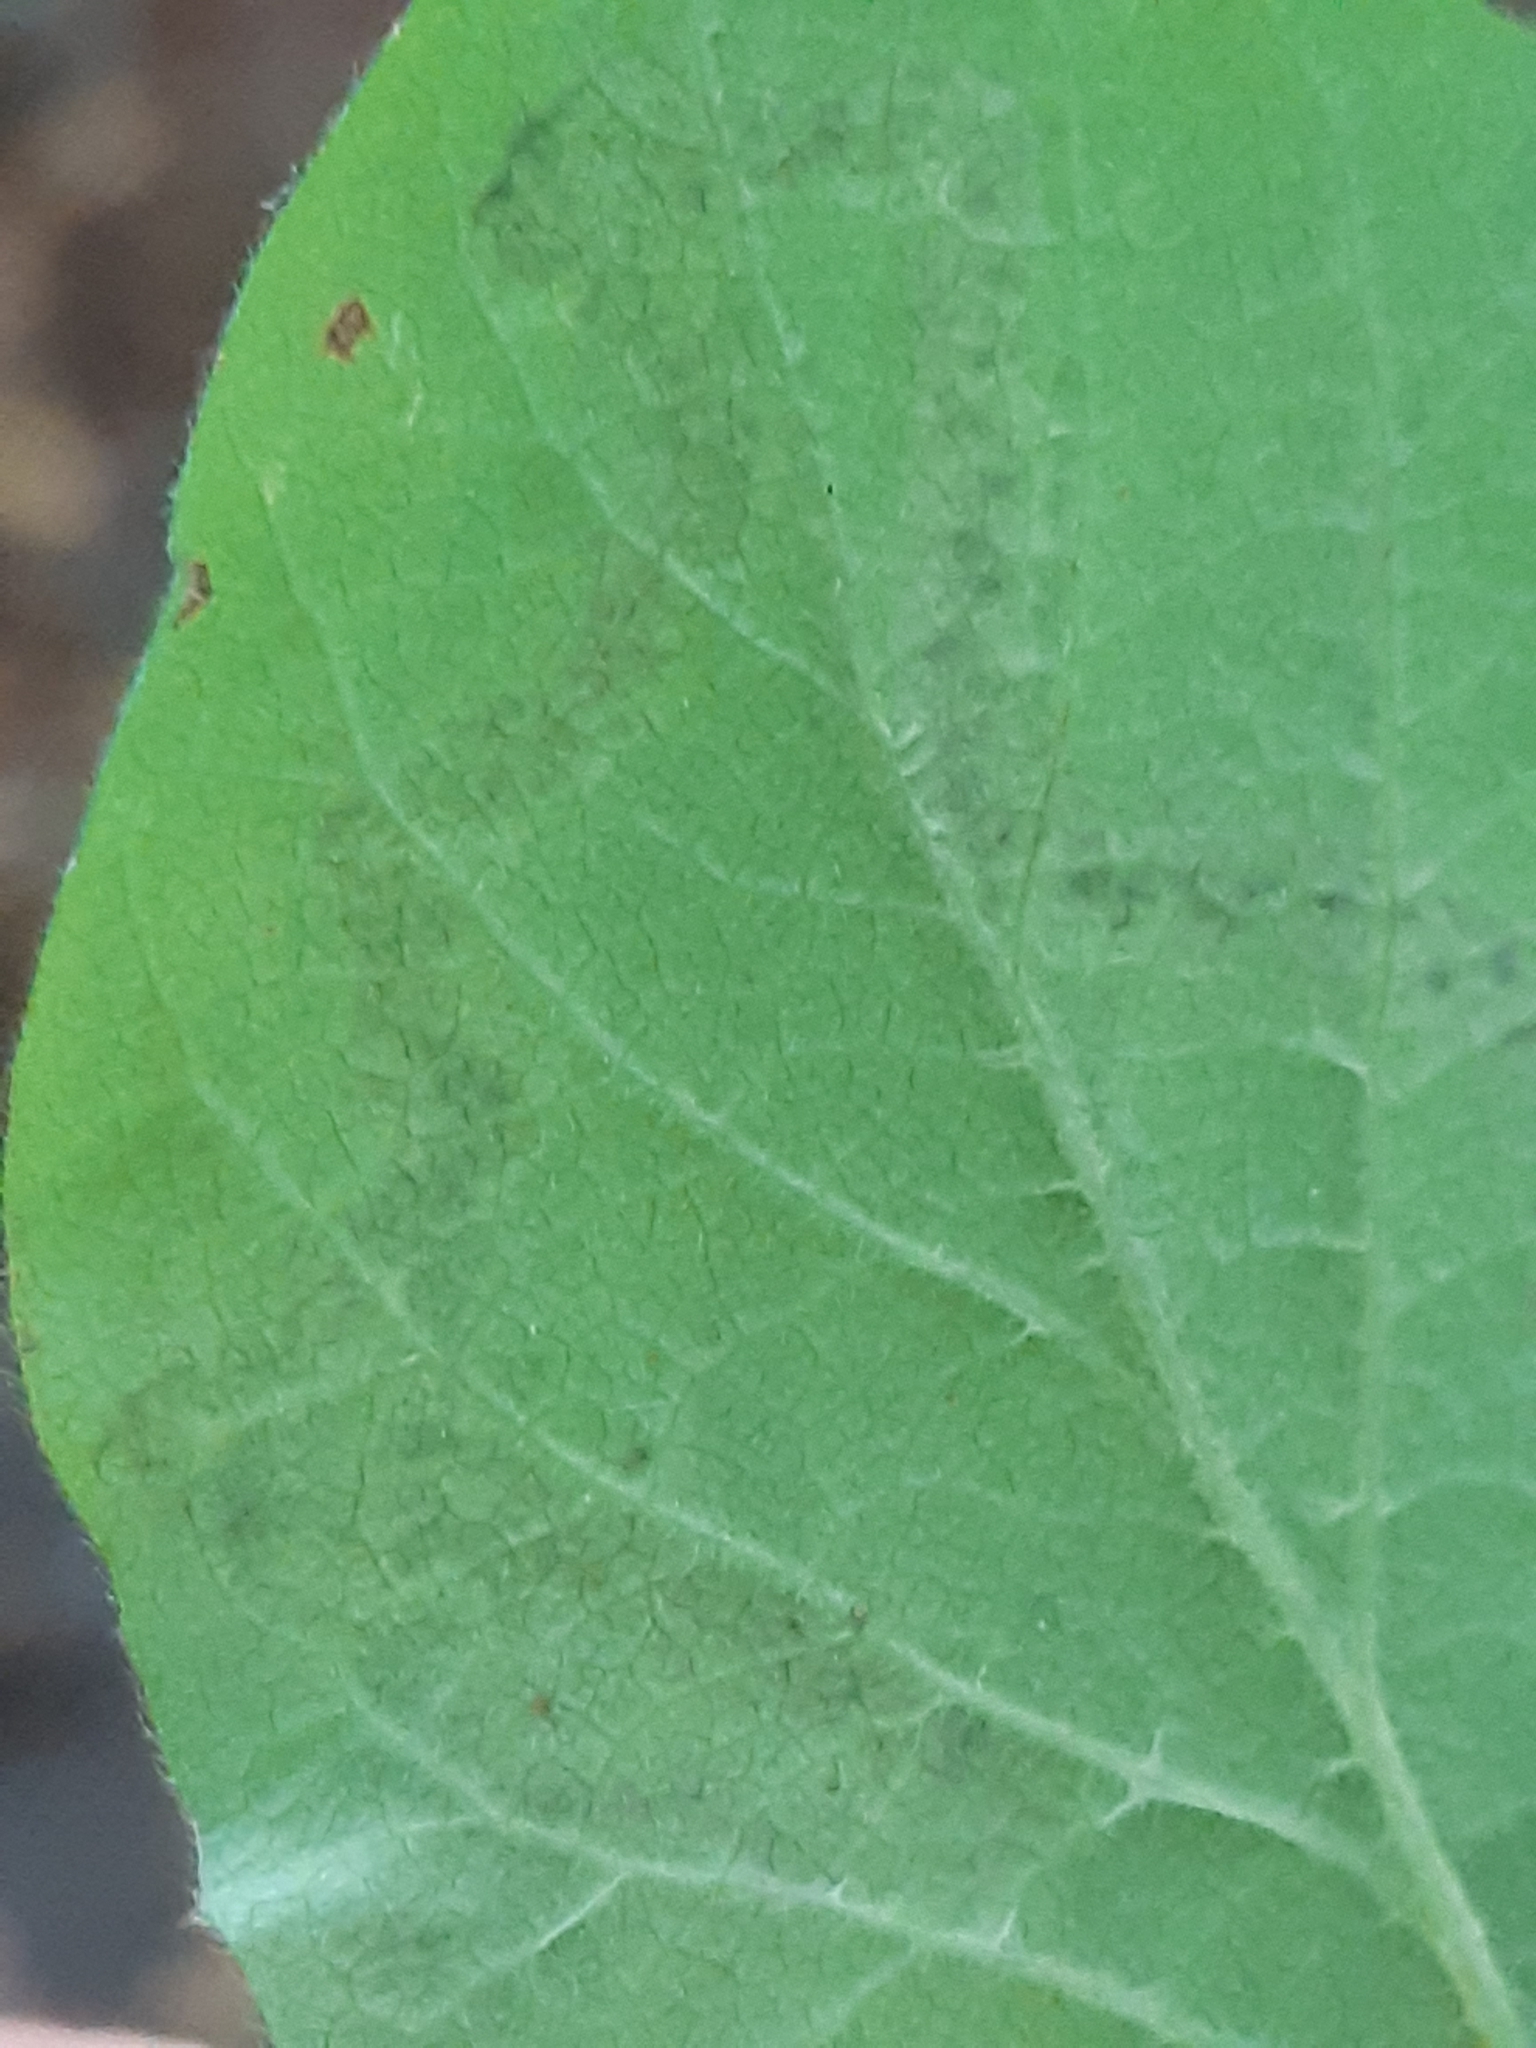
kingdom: Animalia
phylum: Arthropoda
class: Insecta
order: Diptera
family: Agromyzidae
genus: Aulagromyza
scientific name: Aulagromyza luteoscutellata
